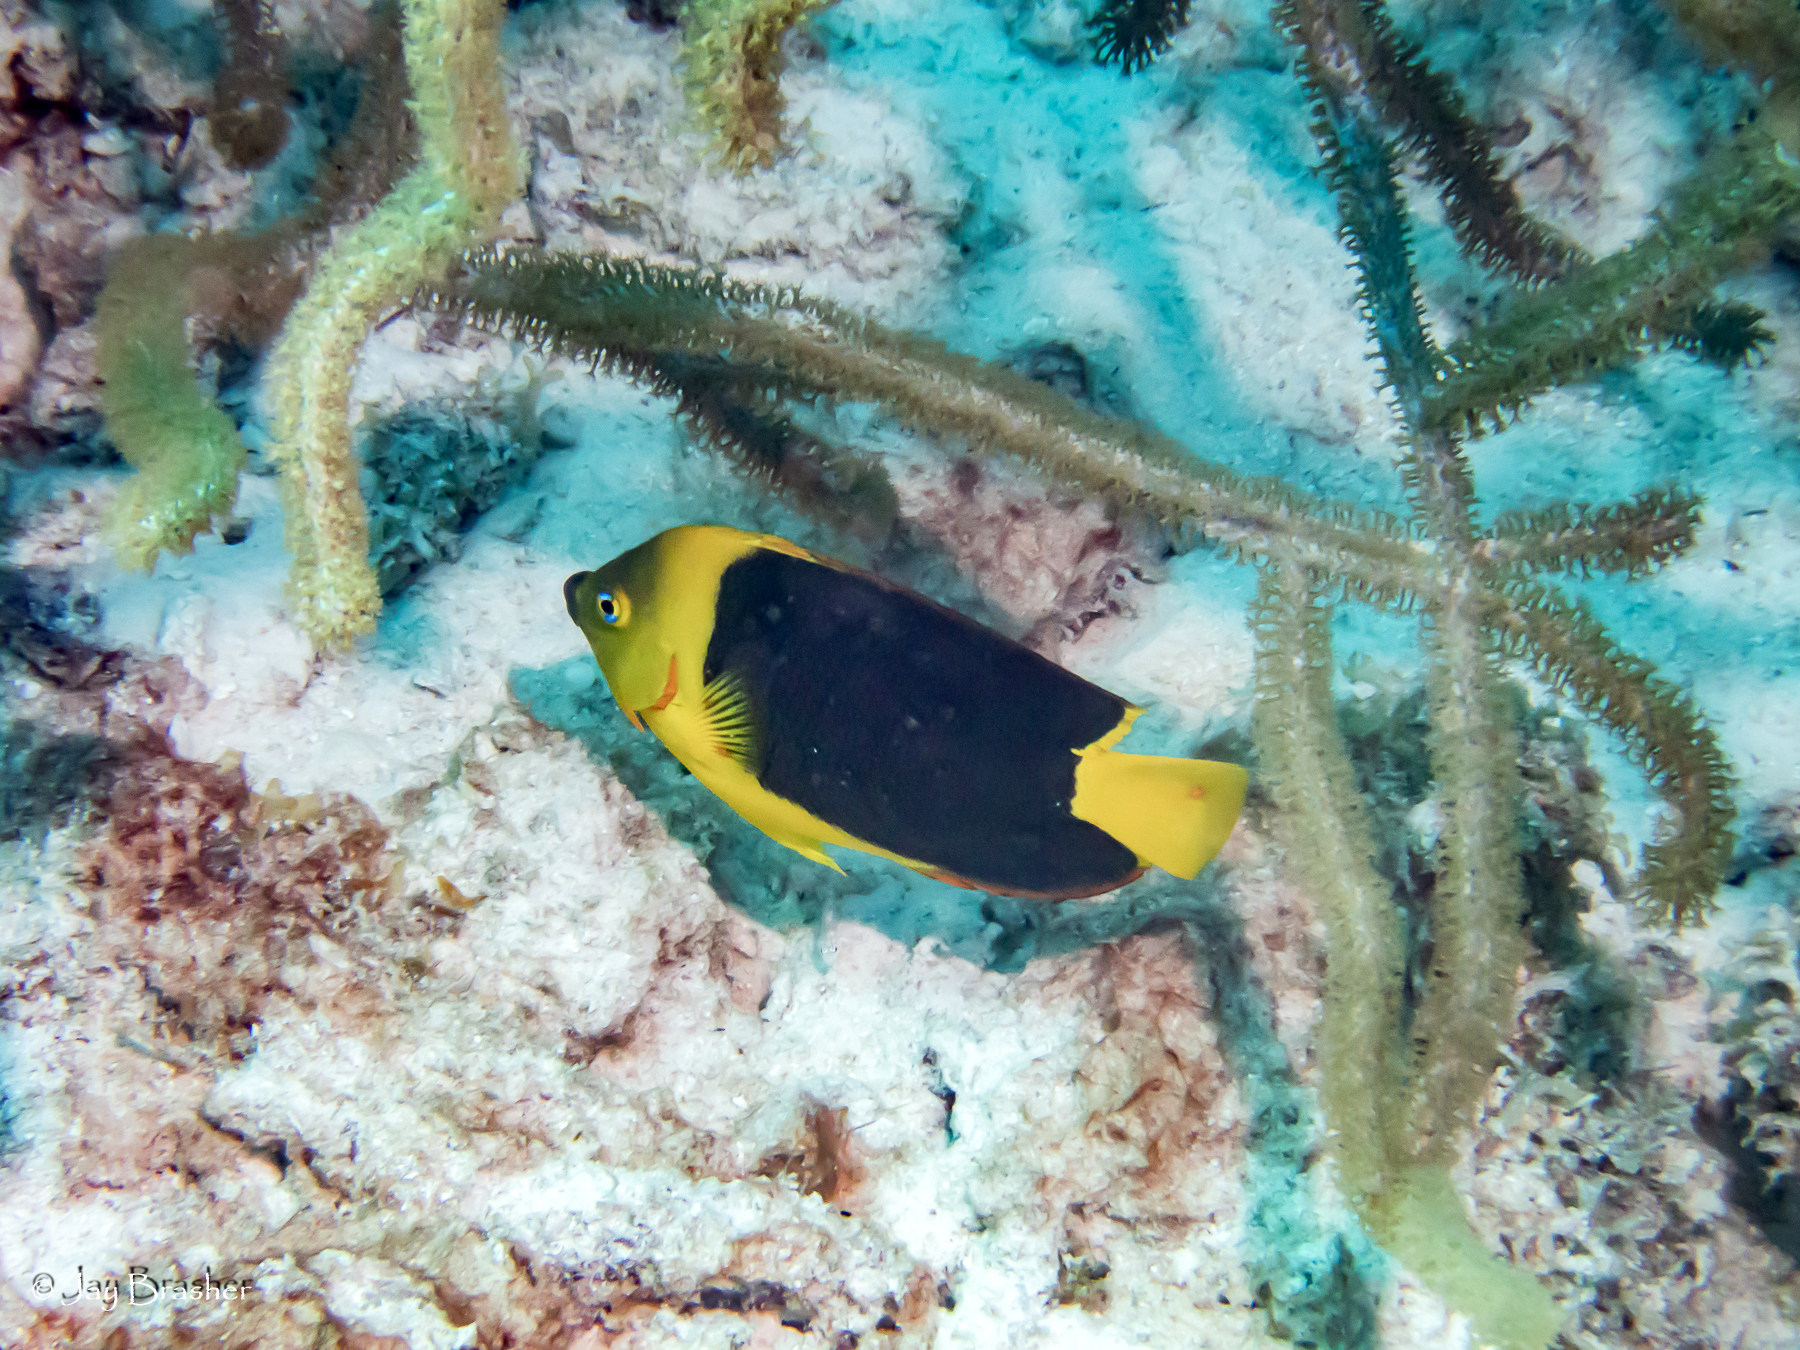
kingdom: Animalia
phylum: Chordata
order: Perciformes
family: Pomacanthidae
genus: Holacanthus
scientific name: Holacanthus tricolor
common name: Rock beauty
